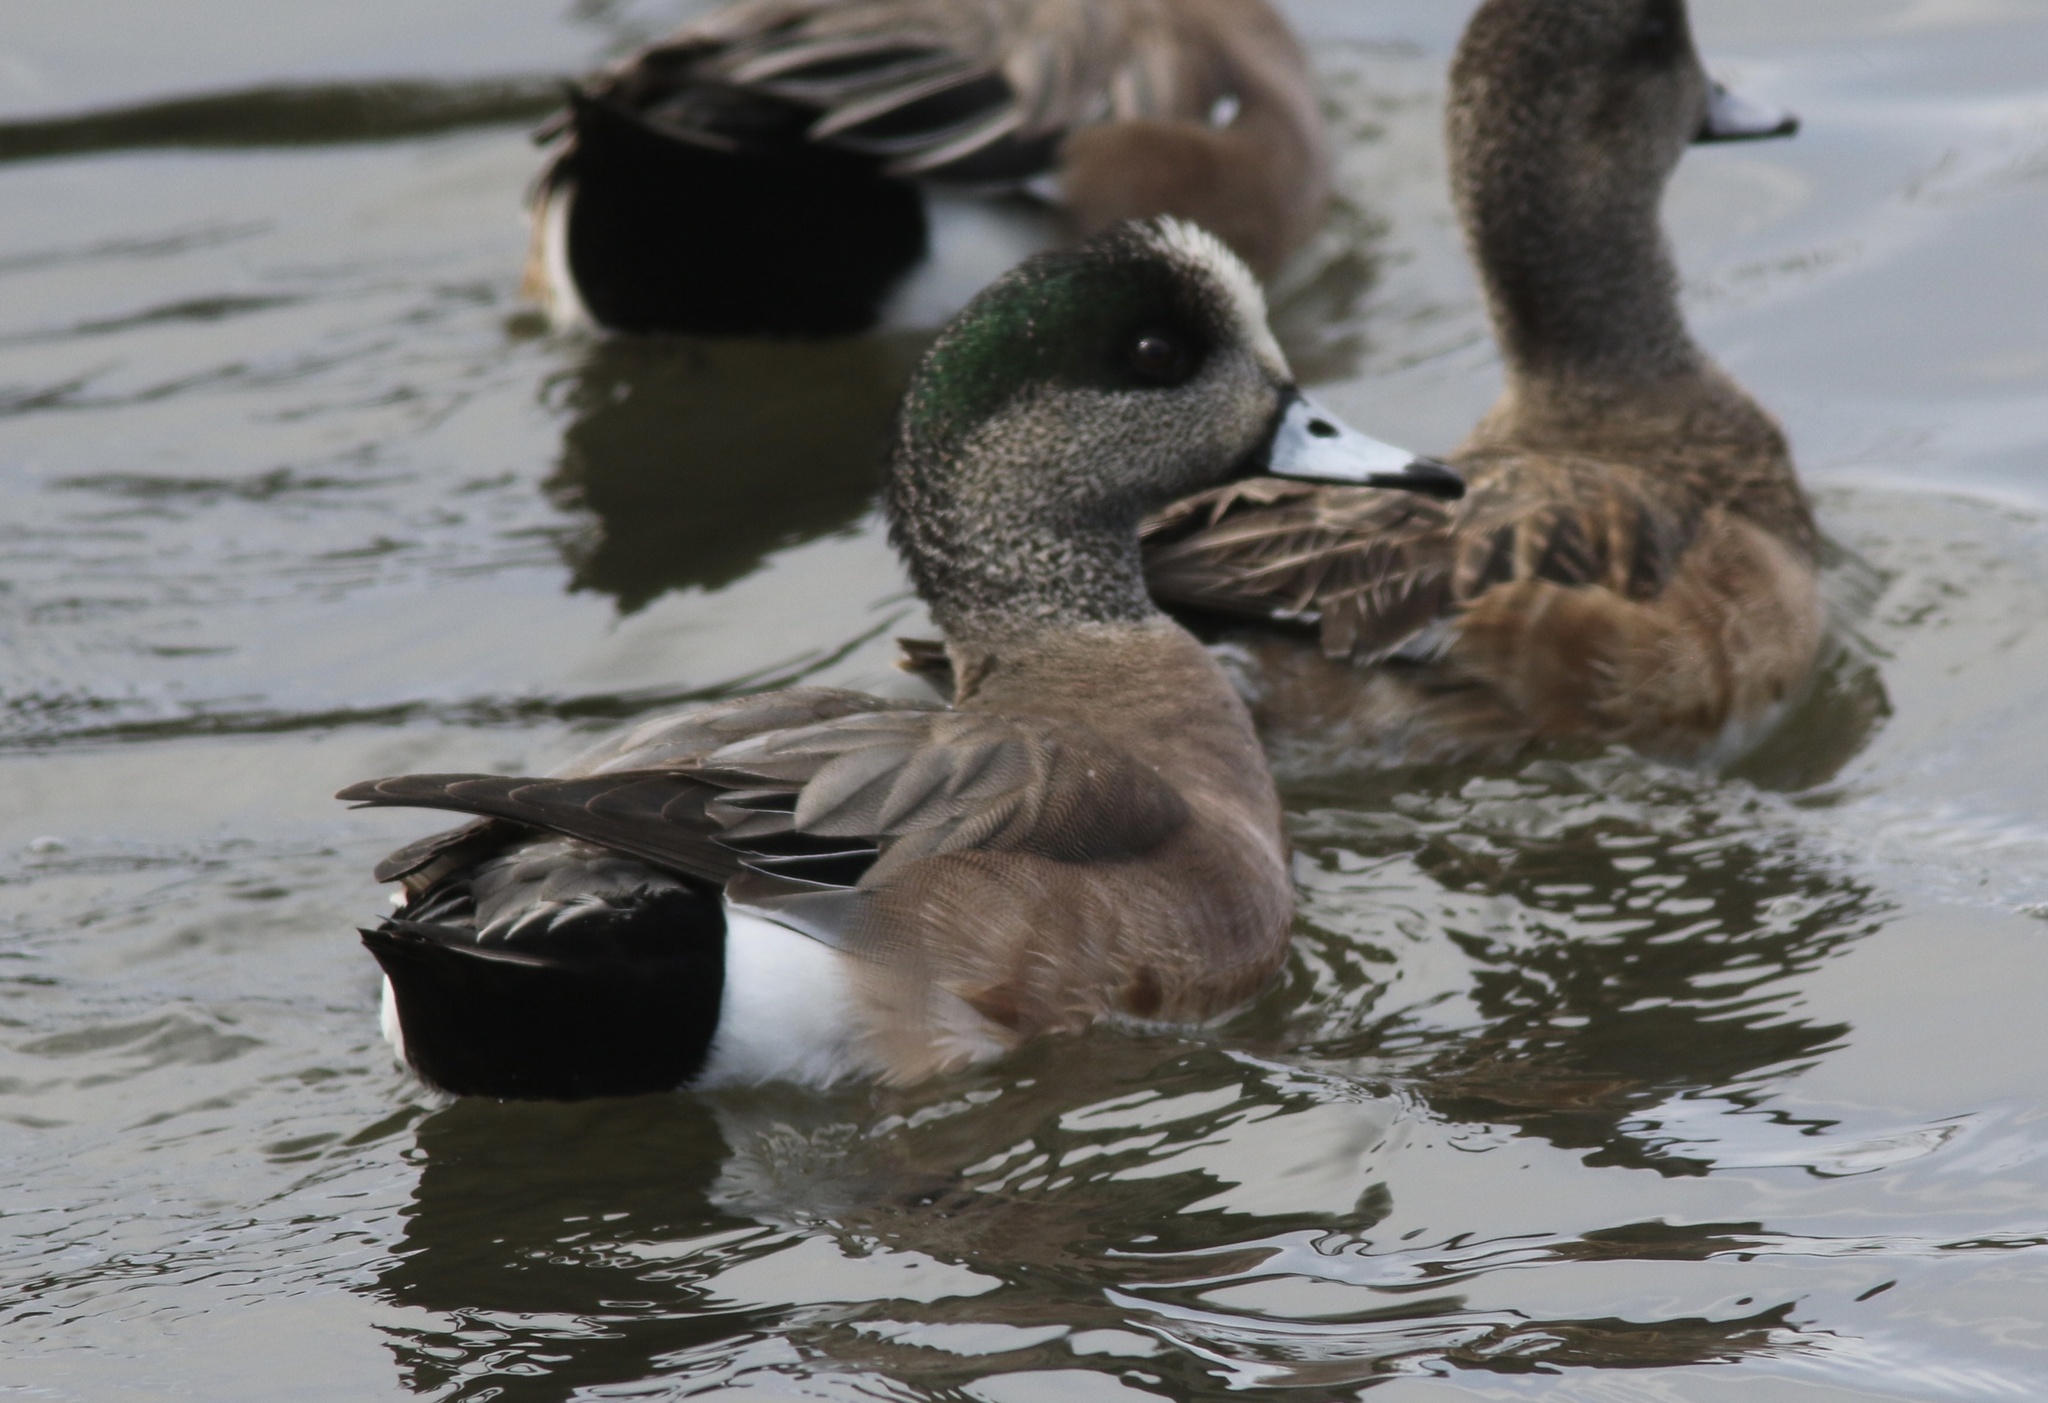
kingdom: Animalia
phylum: Chordata
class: Aves
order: Anseriformes
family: Anatidae
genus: Mareca
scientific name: Mareca americana
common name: American wigeon
